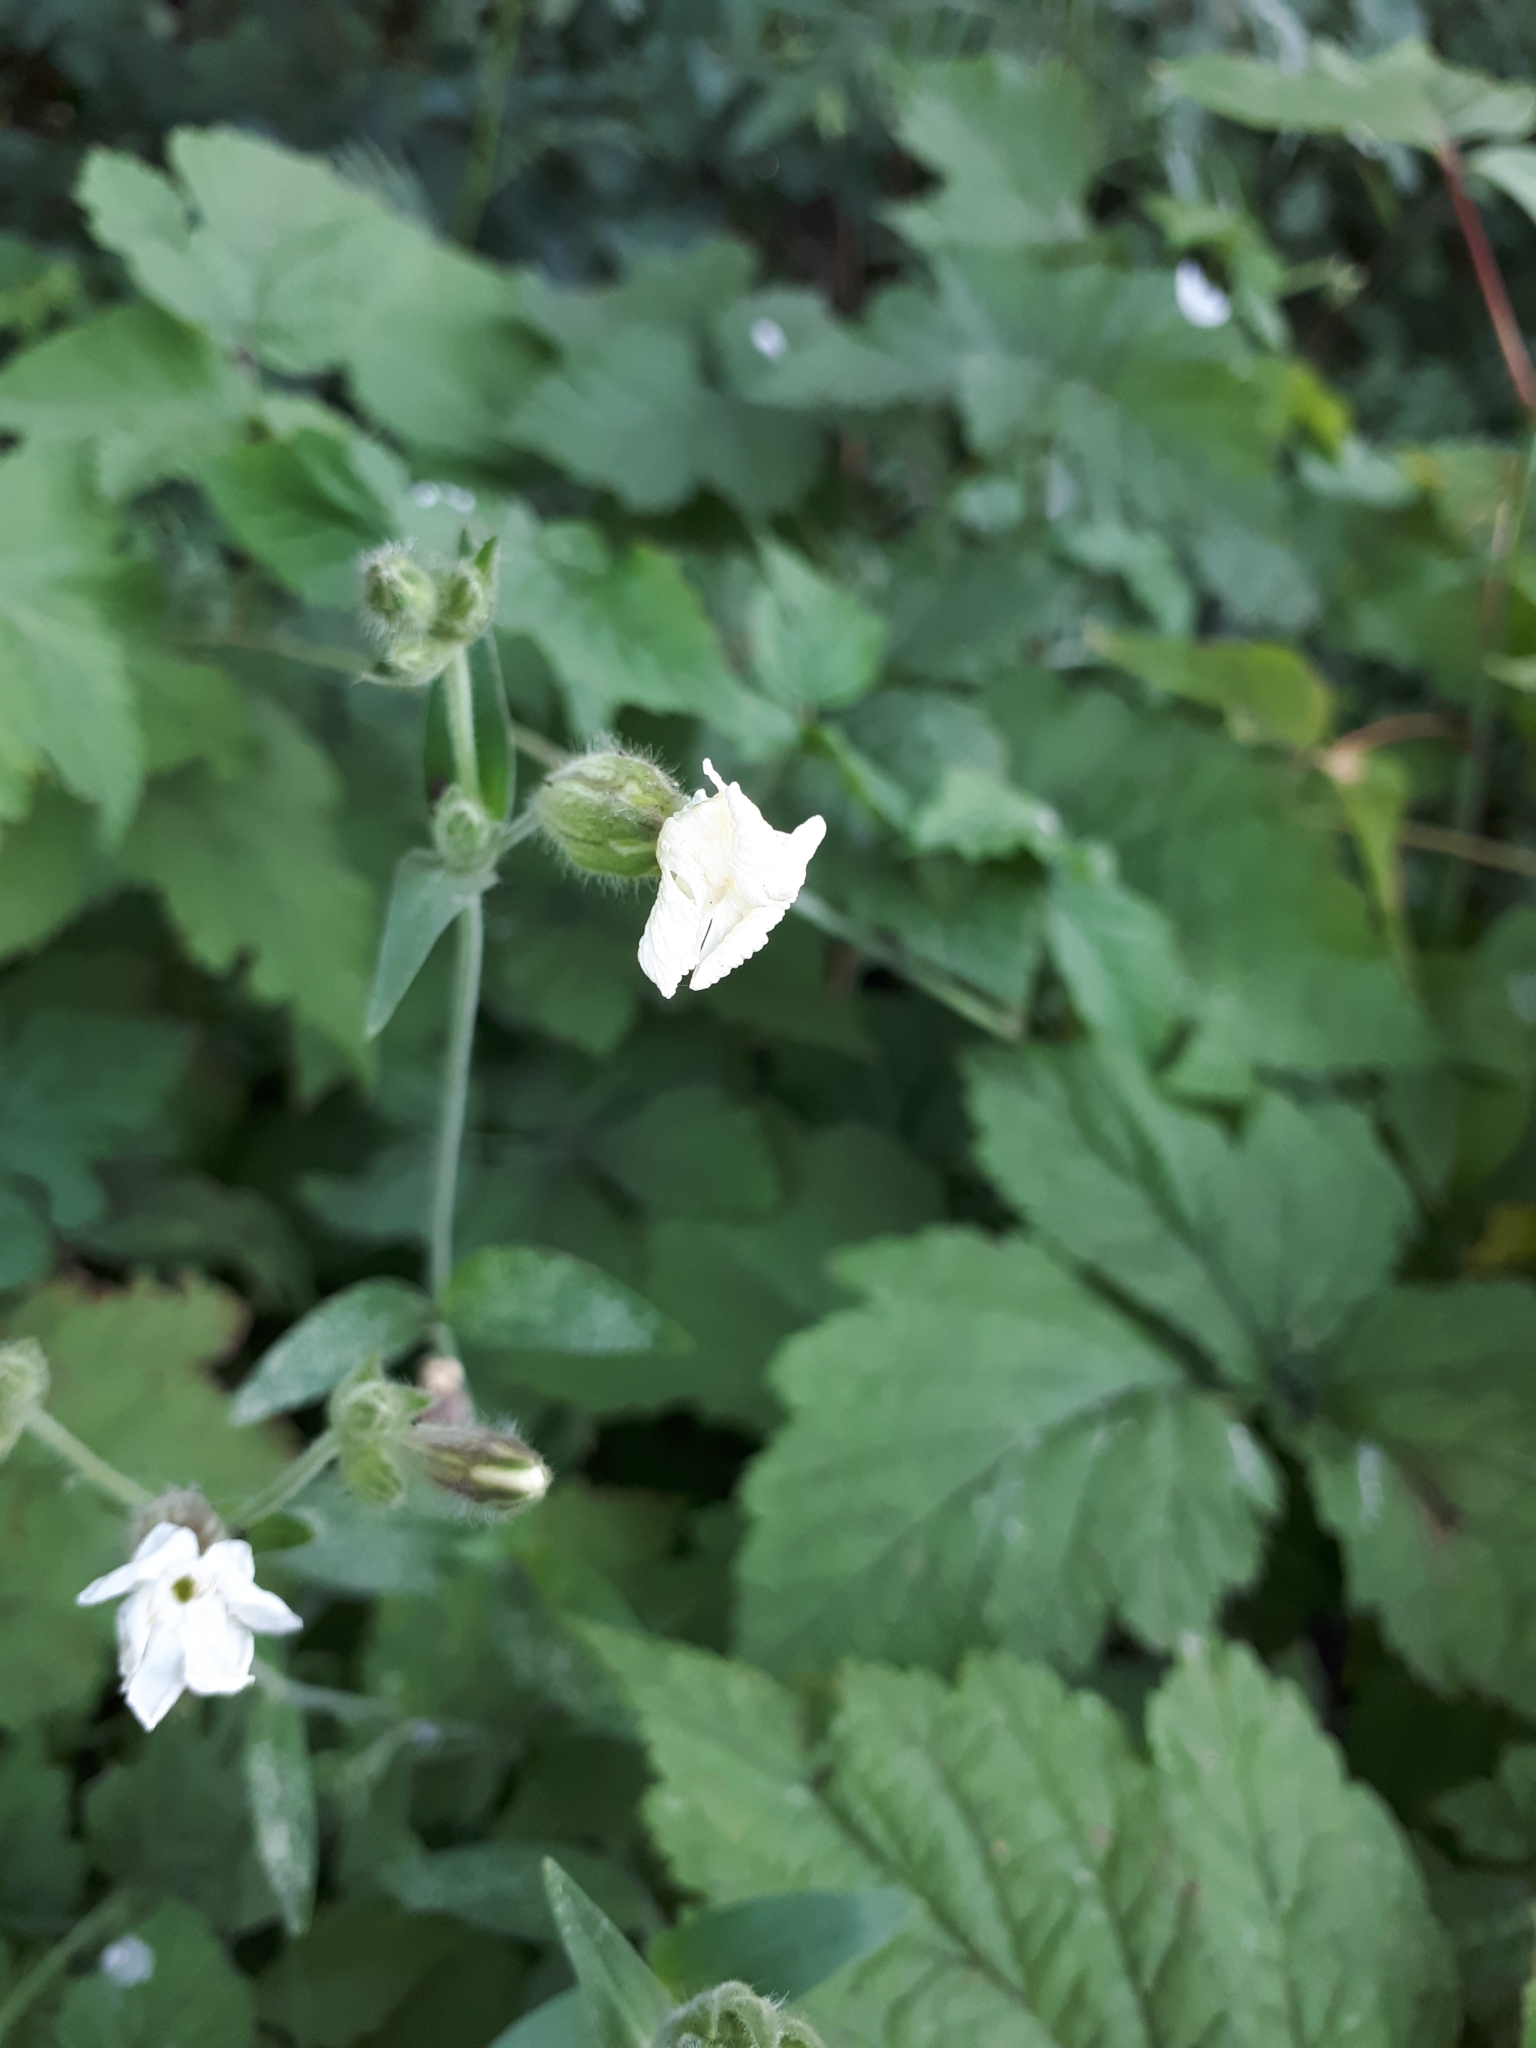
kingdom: Plantae
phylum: Tracheophyta
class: Magnoliopsida
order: Caryophyllales
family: Caryophyllaceae
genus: Silene
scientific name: Silene latifolia
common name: White campion
